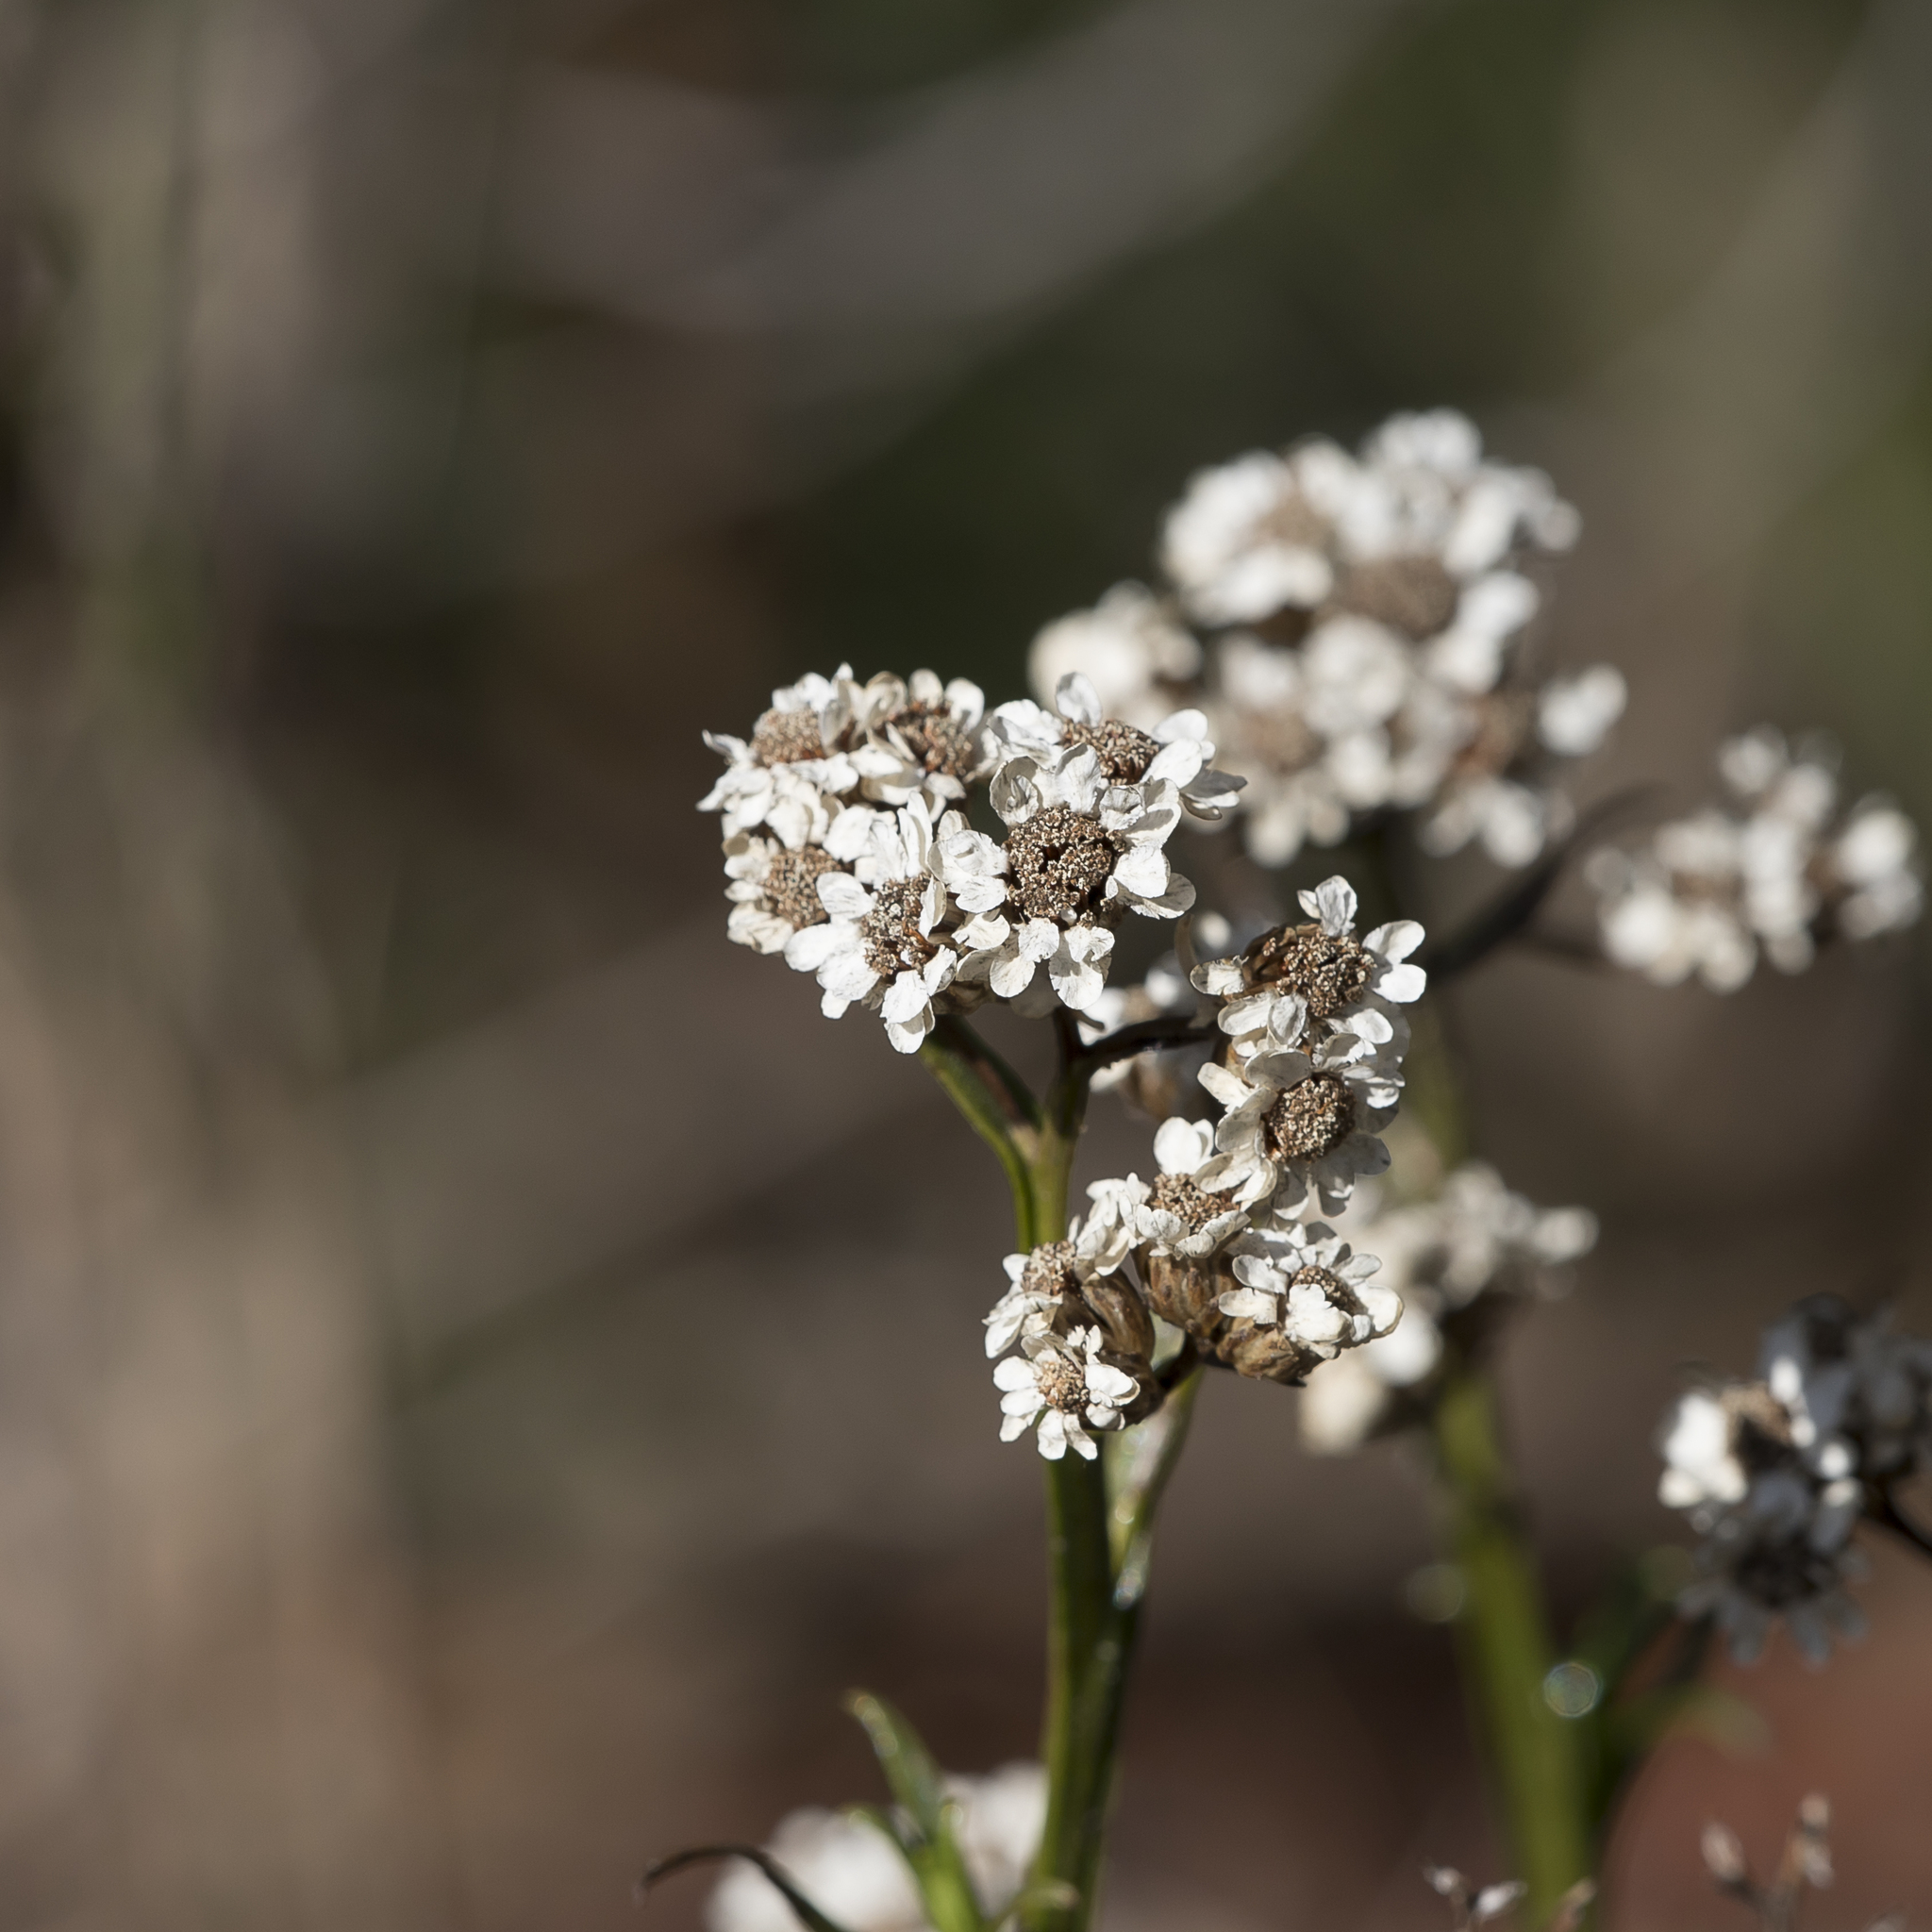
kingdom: Plantae
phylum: Tracheophyta
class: Magnoliopsida
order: Asterales
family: Asteraceae
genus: Ixodia
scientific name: Ixodia achillaeoides
